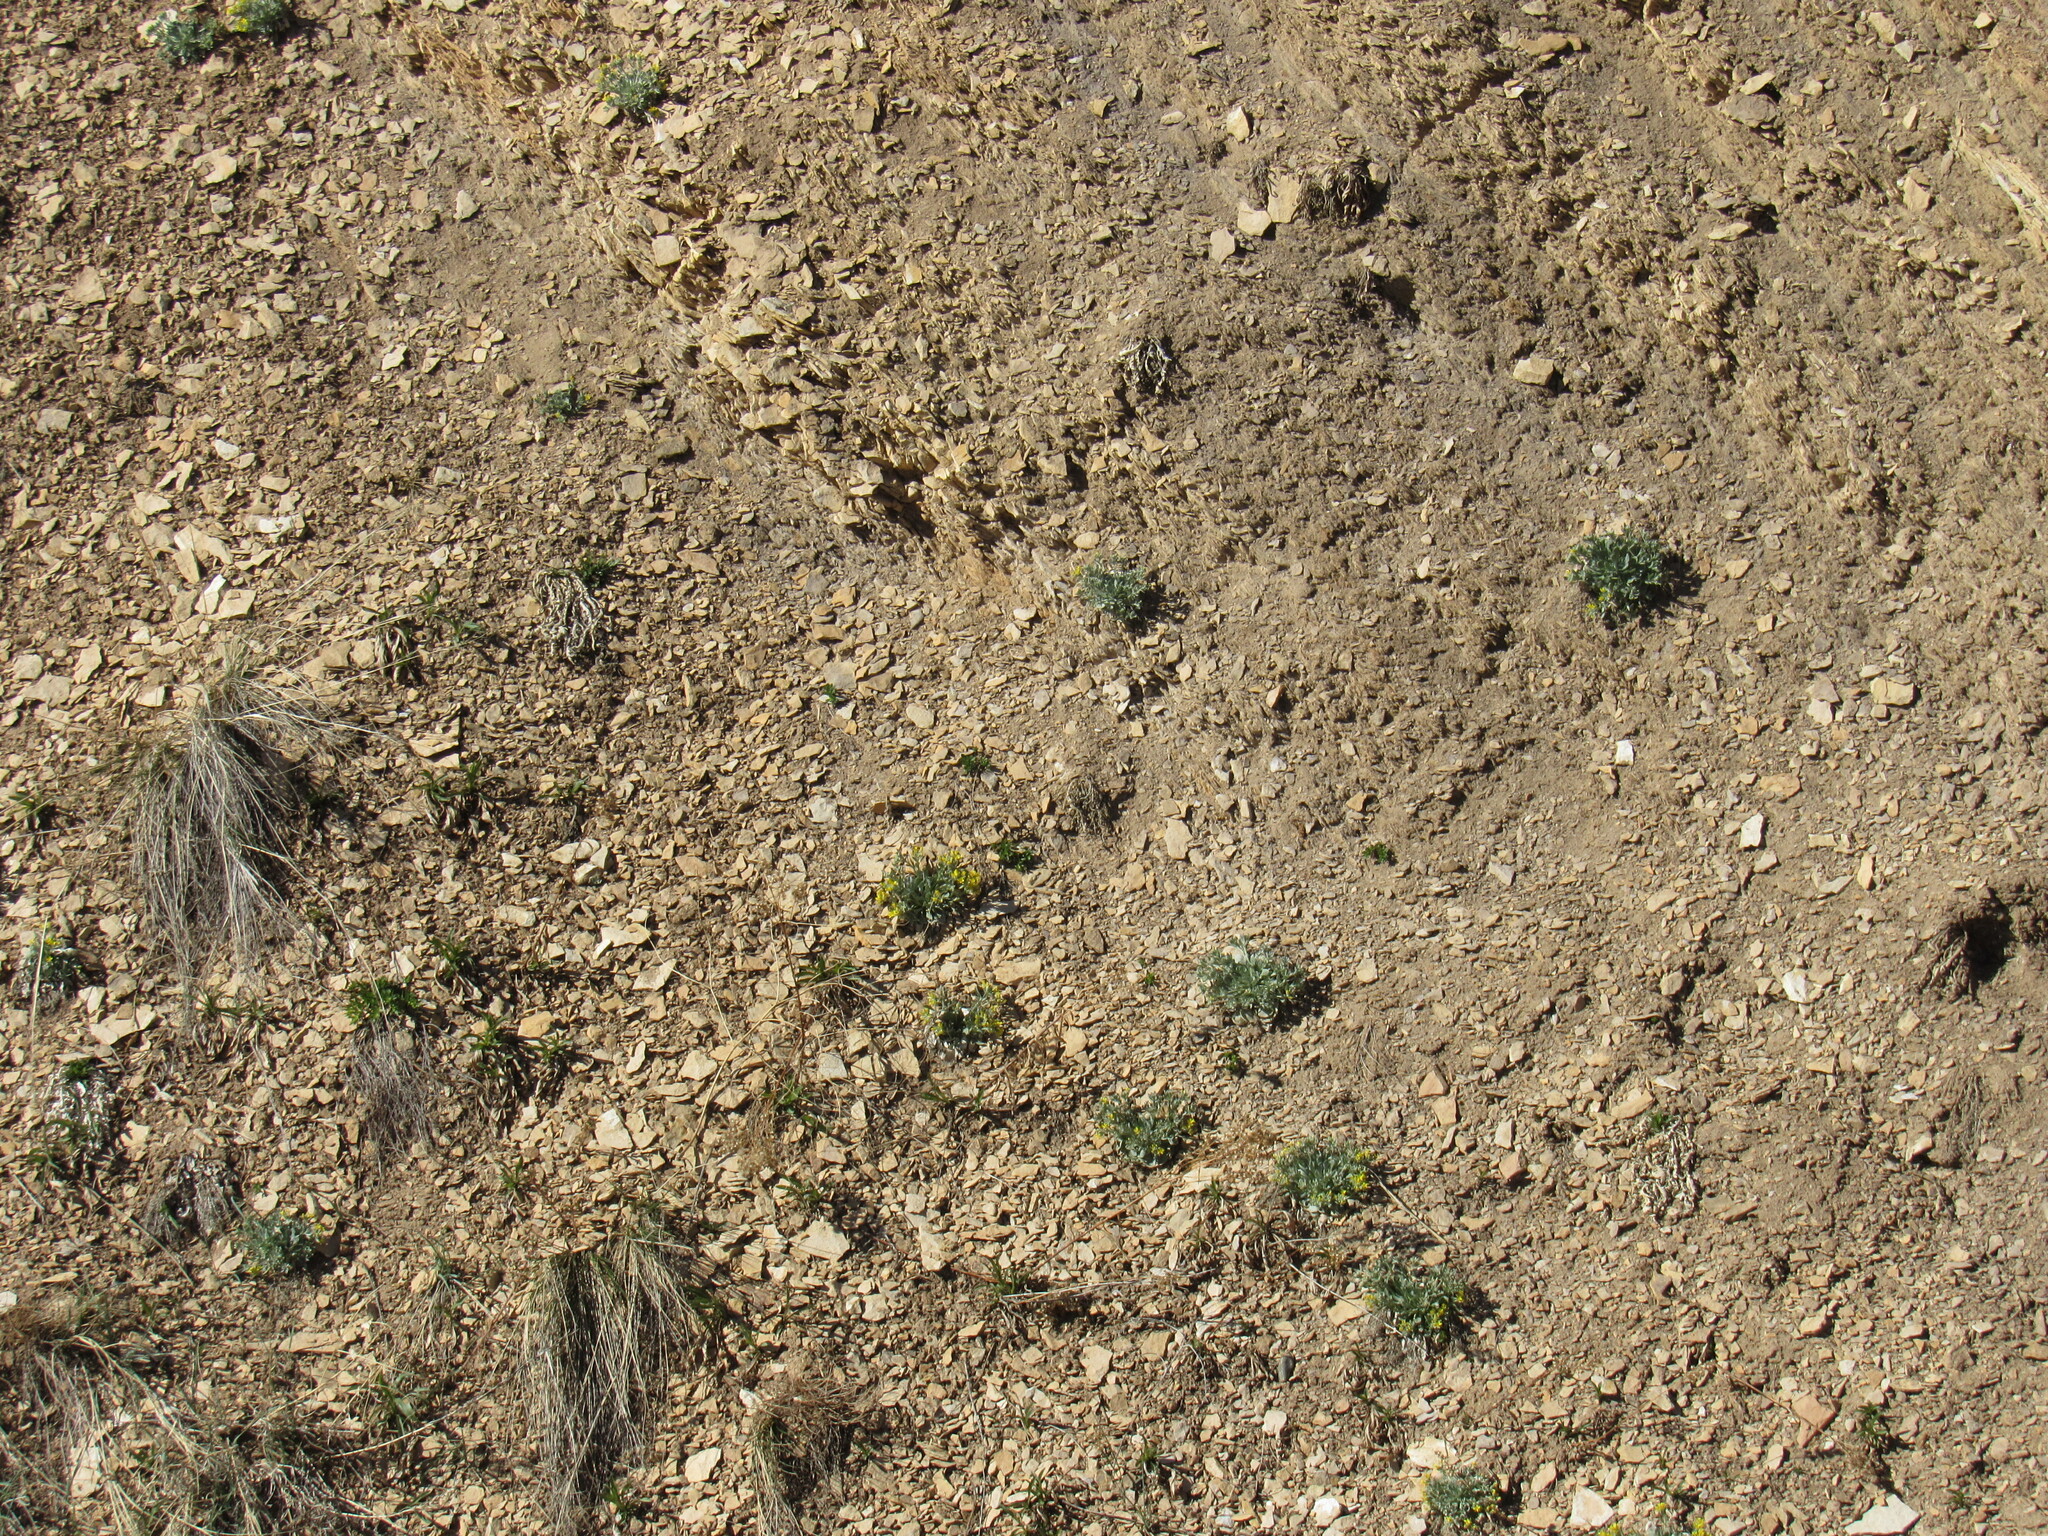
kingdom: Plantae
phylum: Tracheophyta
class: Magnoliopsida
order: Brassicales
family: Brassicaceae
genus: Physaria
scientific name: Physaria bellii
